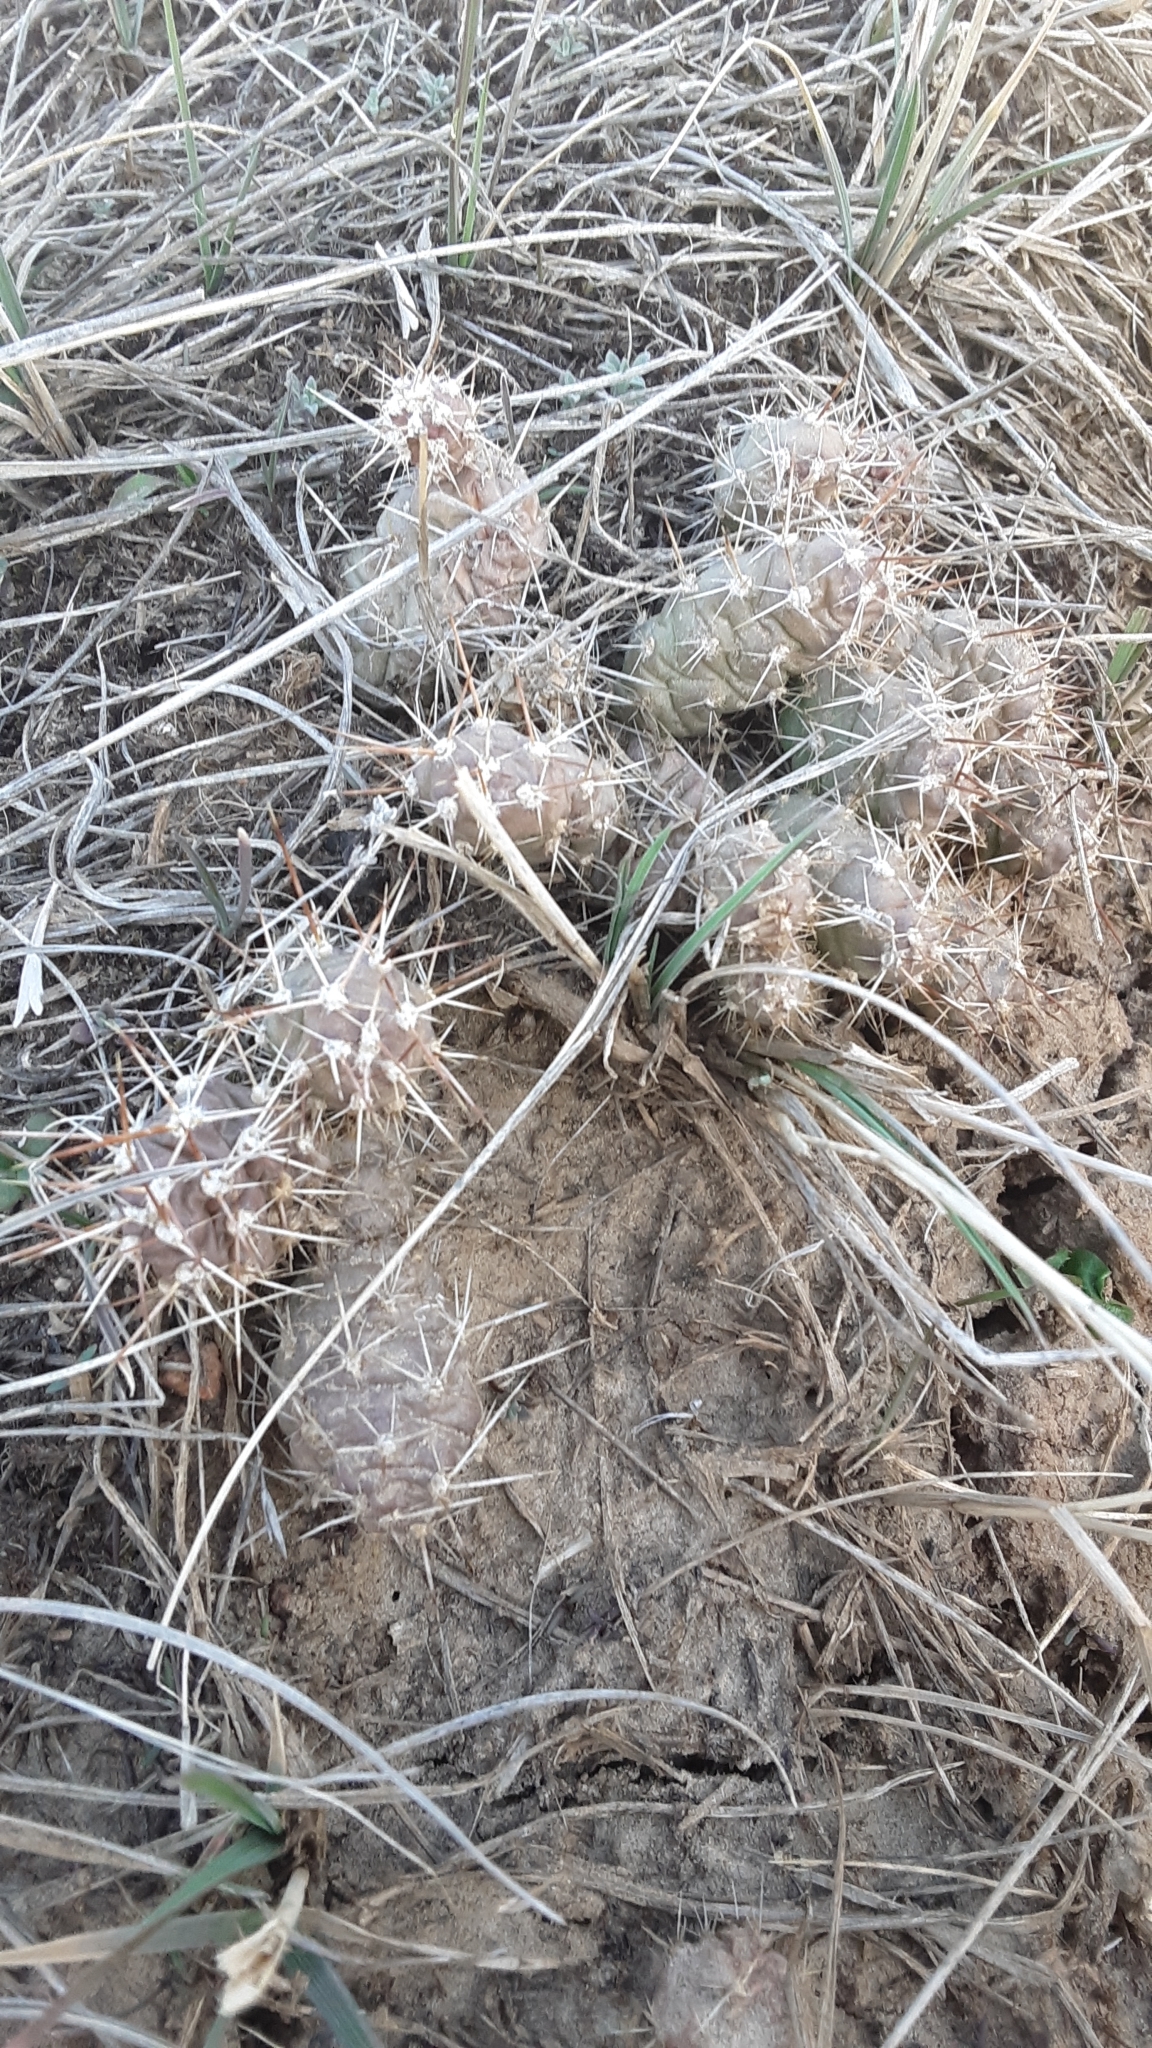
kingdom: Plantae
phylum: Tracheophyta
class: Magnoliopsida
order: Caryophyllales
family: Cactaceae
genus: Opuntia
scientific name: Opuntia fragilis
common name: Brittle cactus
